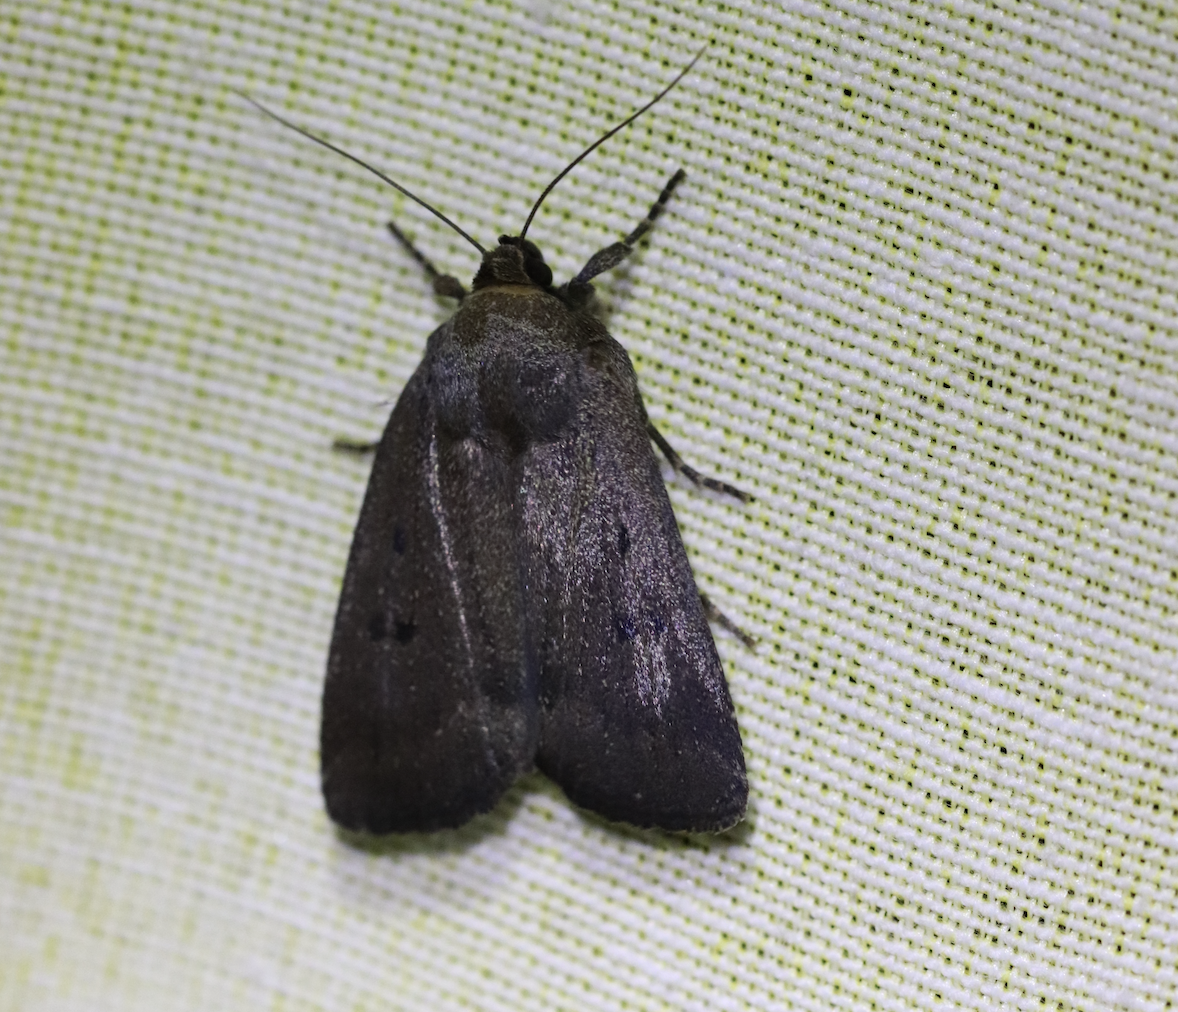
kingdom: Animalia
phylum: Arthropoda
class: Insecta
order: Lepidoptera
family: Noctuidae
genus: Amphipyra
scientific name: Amphipyra tragopoginis
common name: Mouse moth
